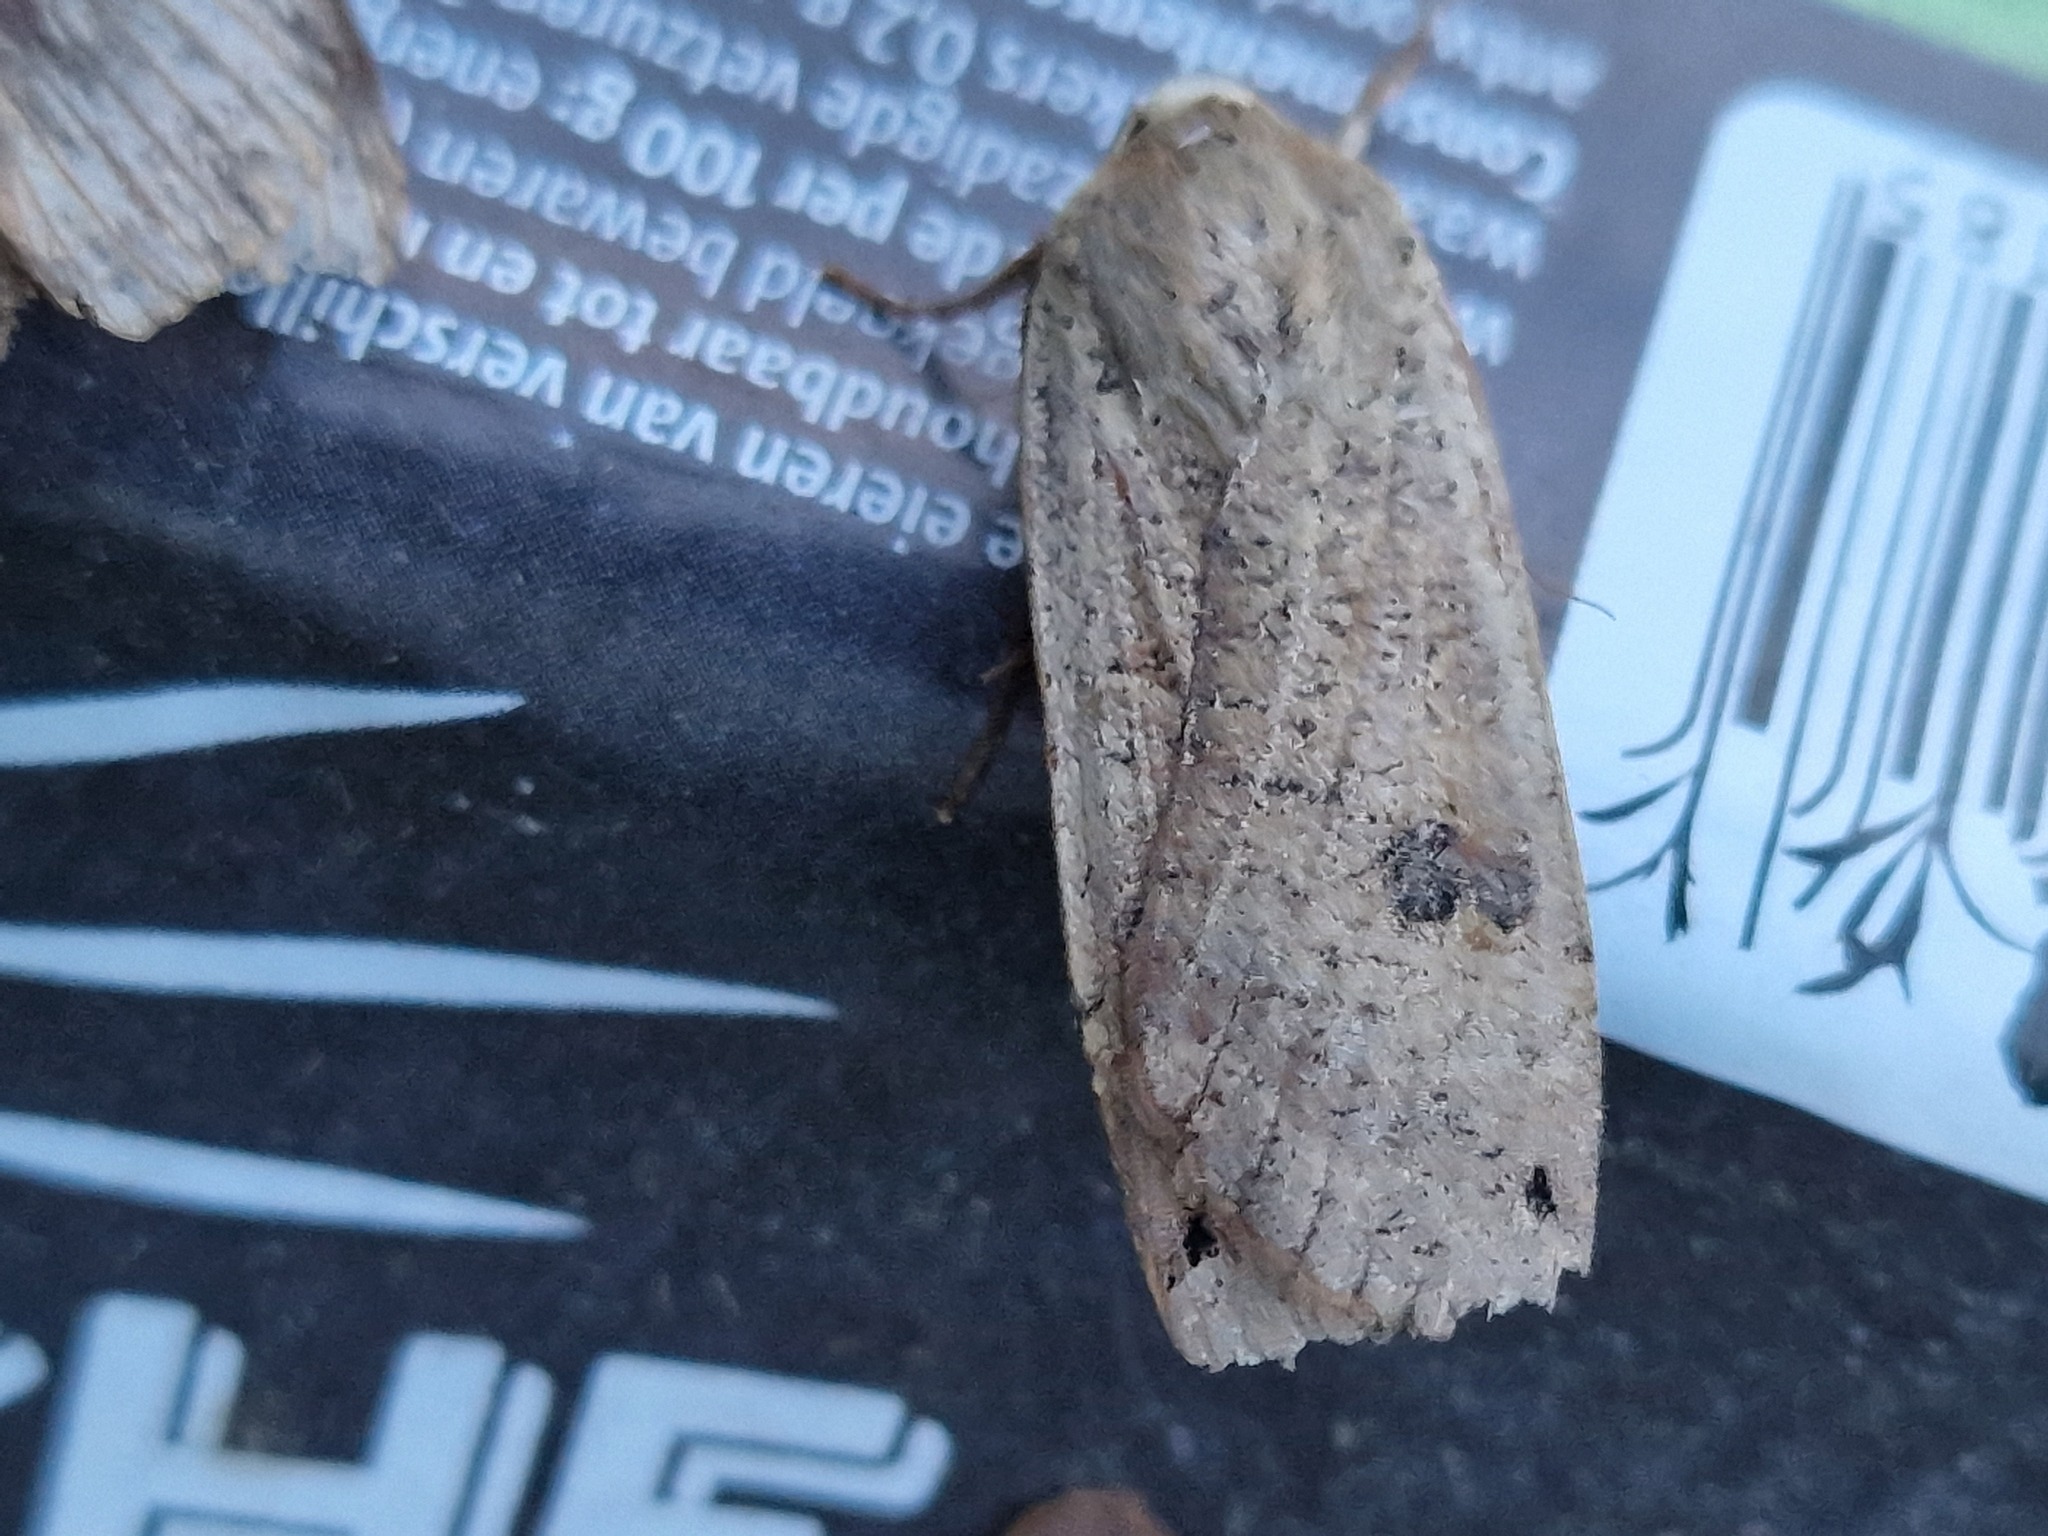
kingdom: Animalia
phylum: Arthropoda
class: Insecta
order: Lepidoptera
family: Noctuidae
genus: Noctua
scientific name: Noctua pronuba
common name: Large yellow underwing
